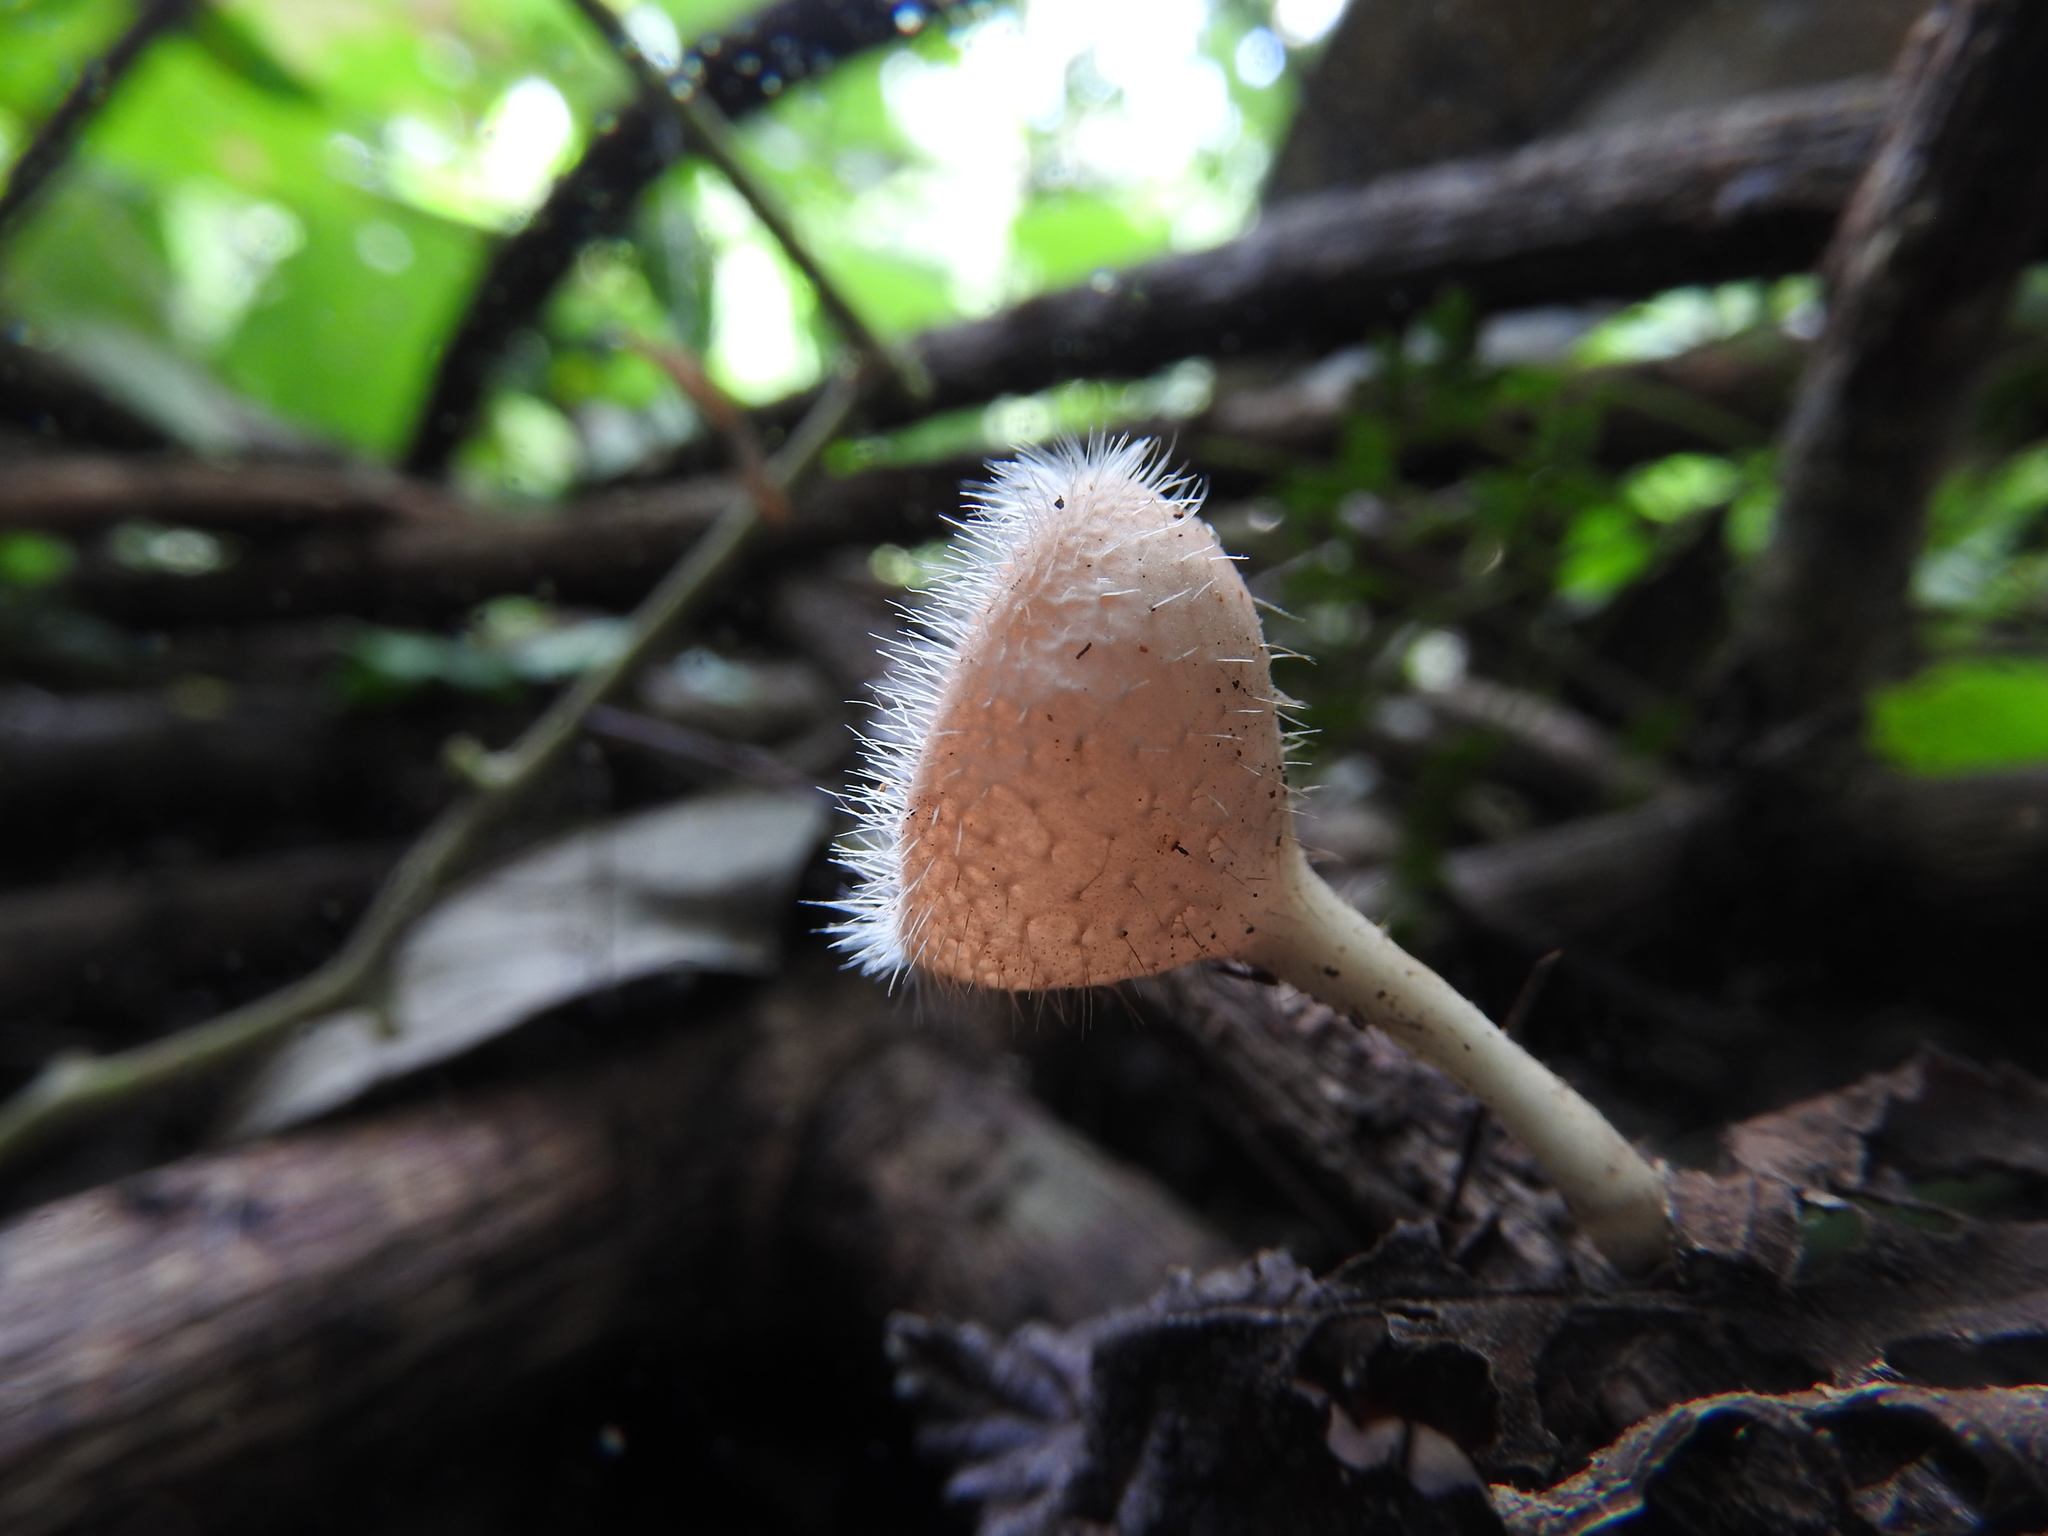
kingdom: Fungi
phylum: Ascomycota
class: Pezizomycetes
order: Pezizales
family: Sarcoscyphaceae
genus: Cookeina
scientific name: Cookeina tricholoma
